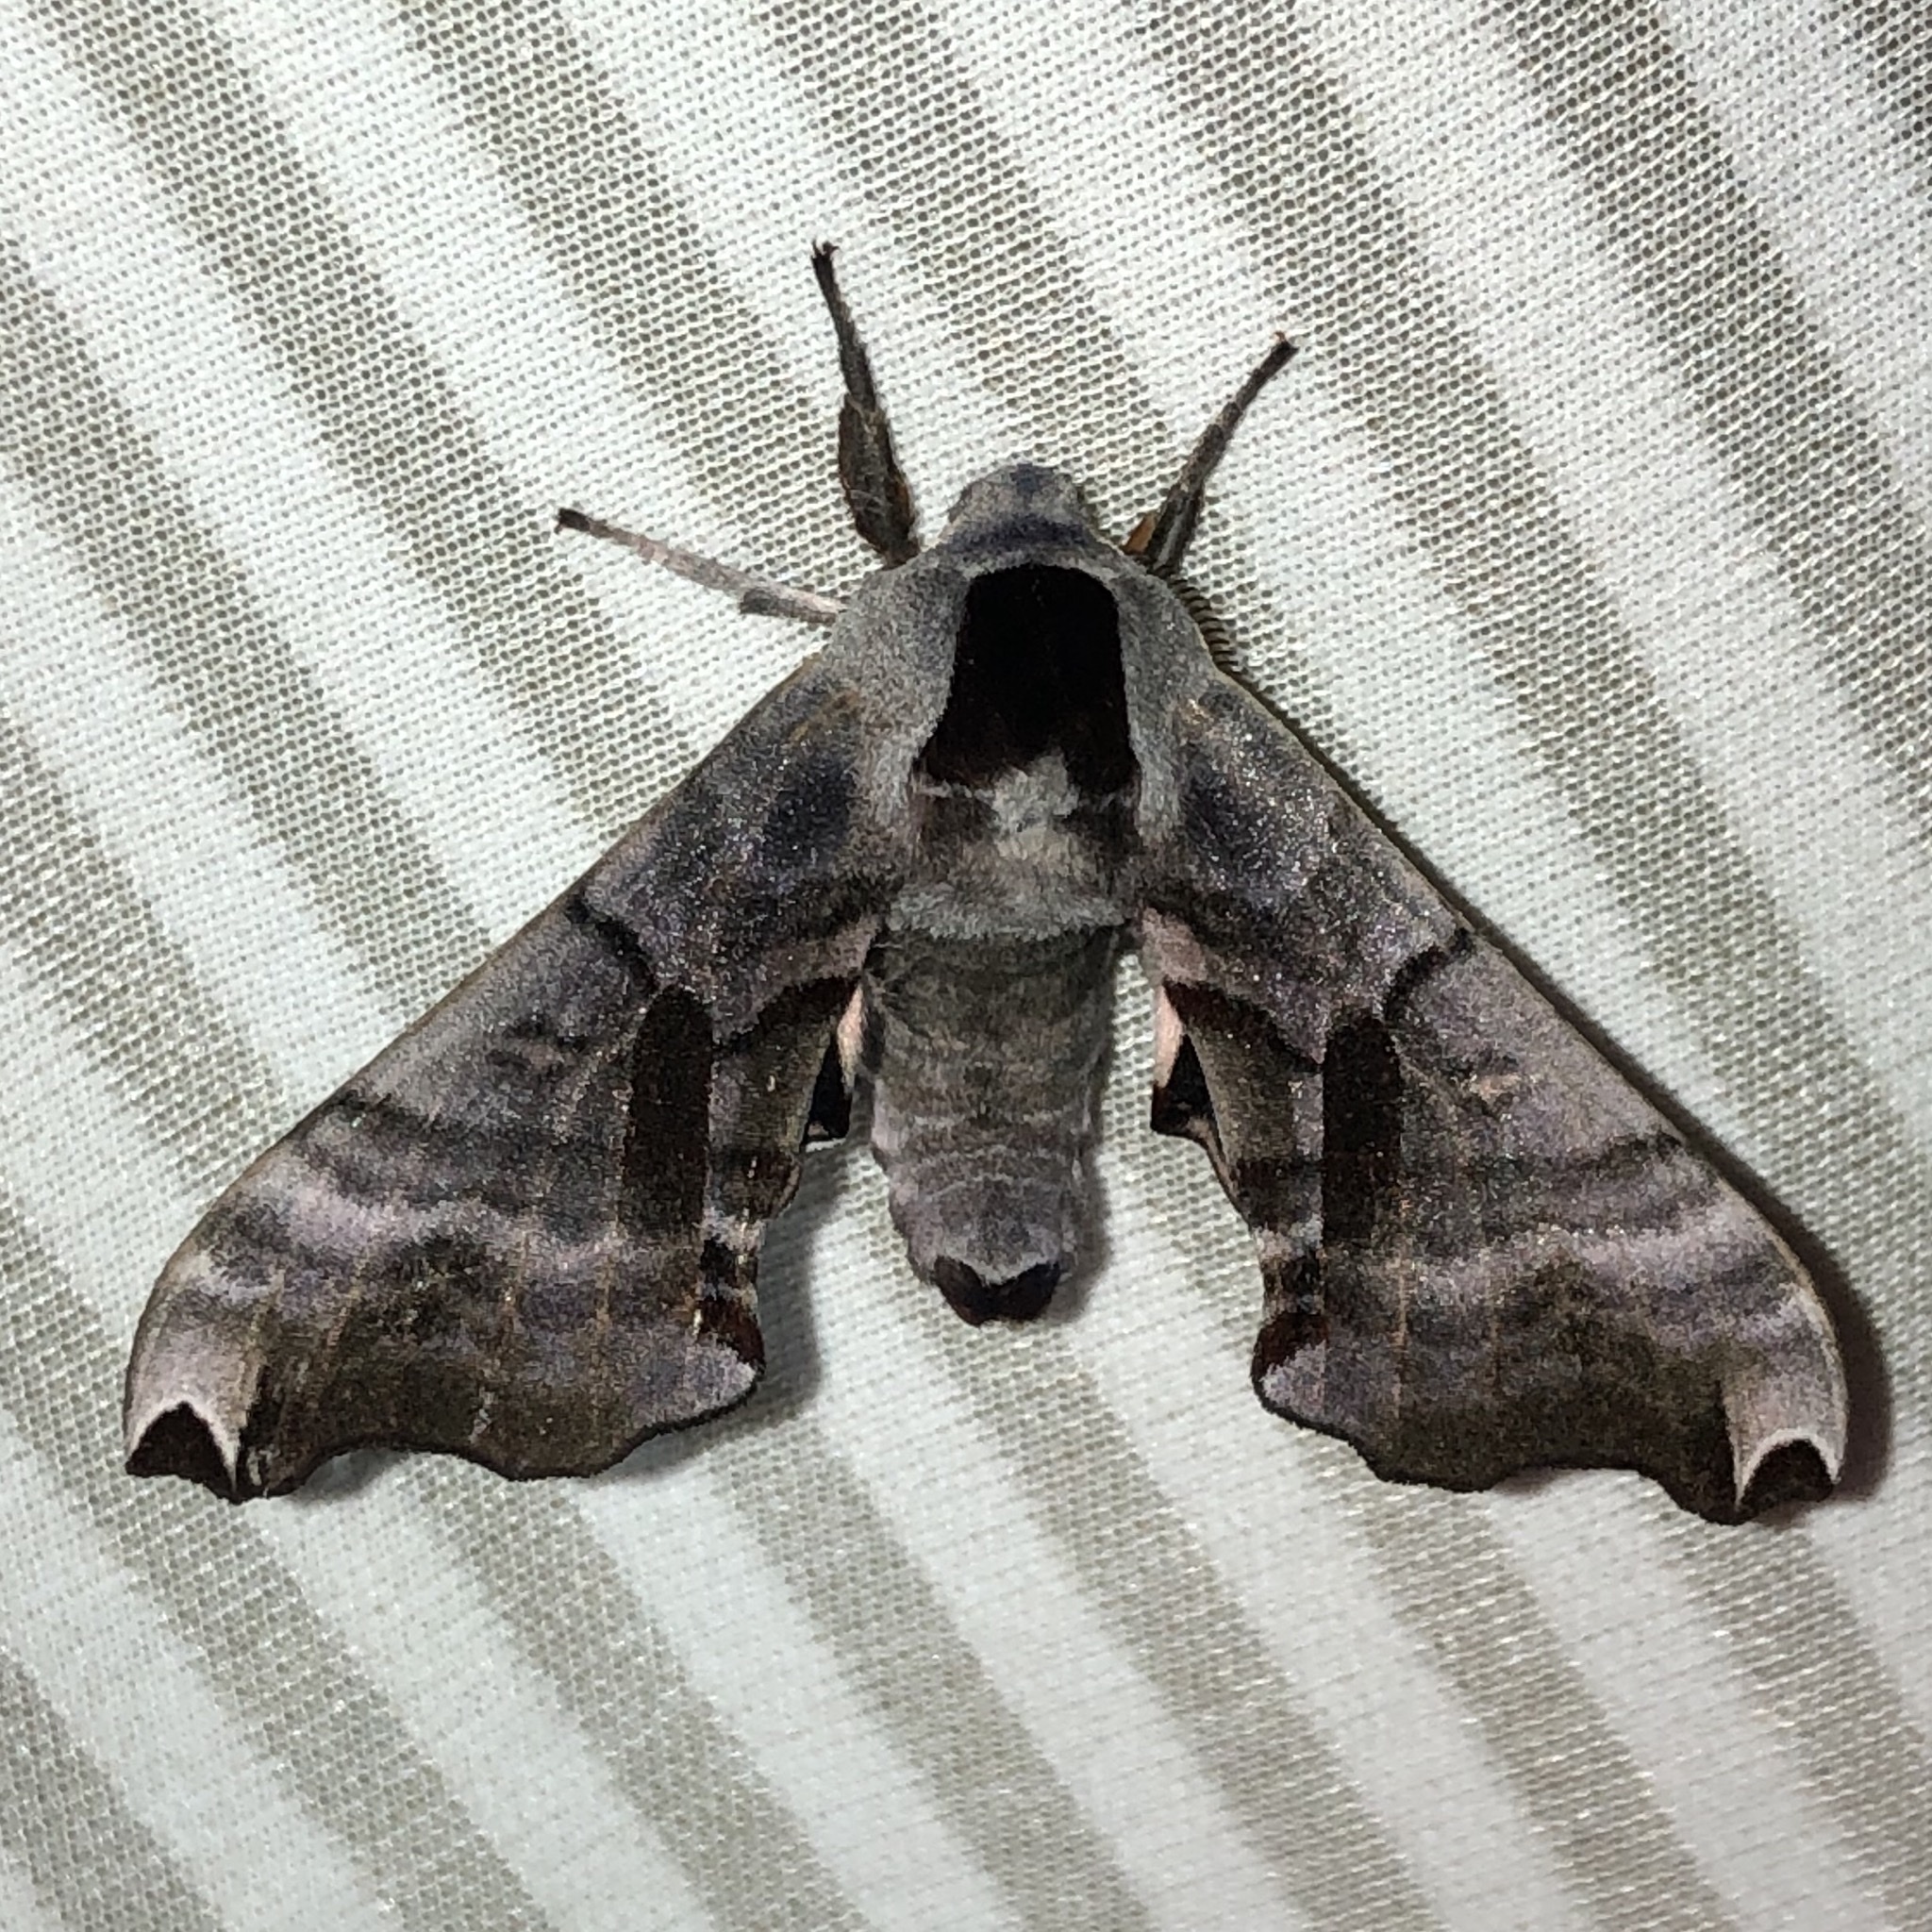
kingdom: Animalia
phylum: Arthropoda
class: Insecta
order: Lepidoptera
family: Sphingidae
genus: Smerinthus
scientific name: Smerinthus jamaicensis
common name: Twin spotted sphinx
